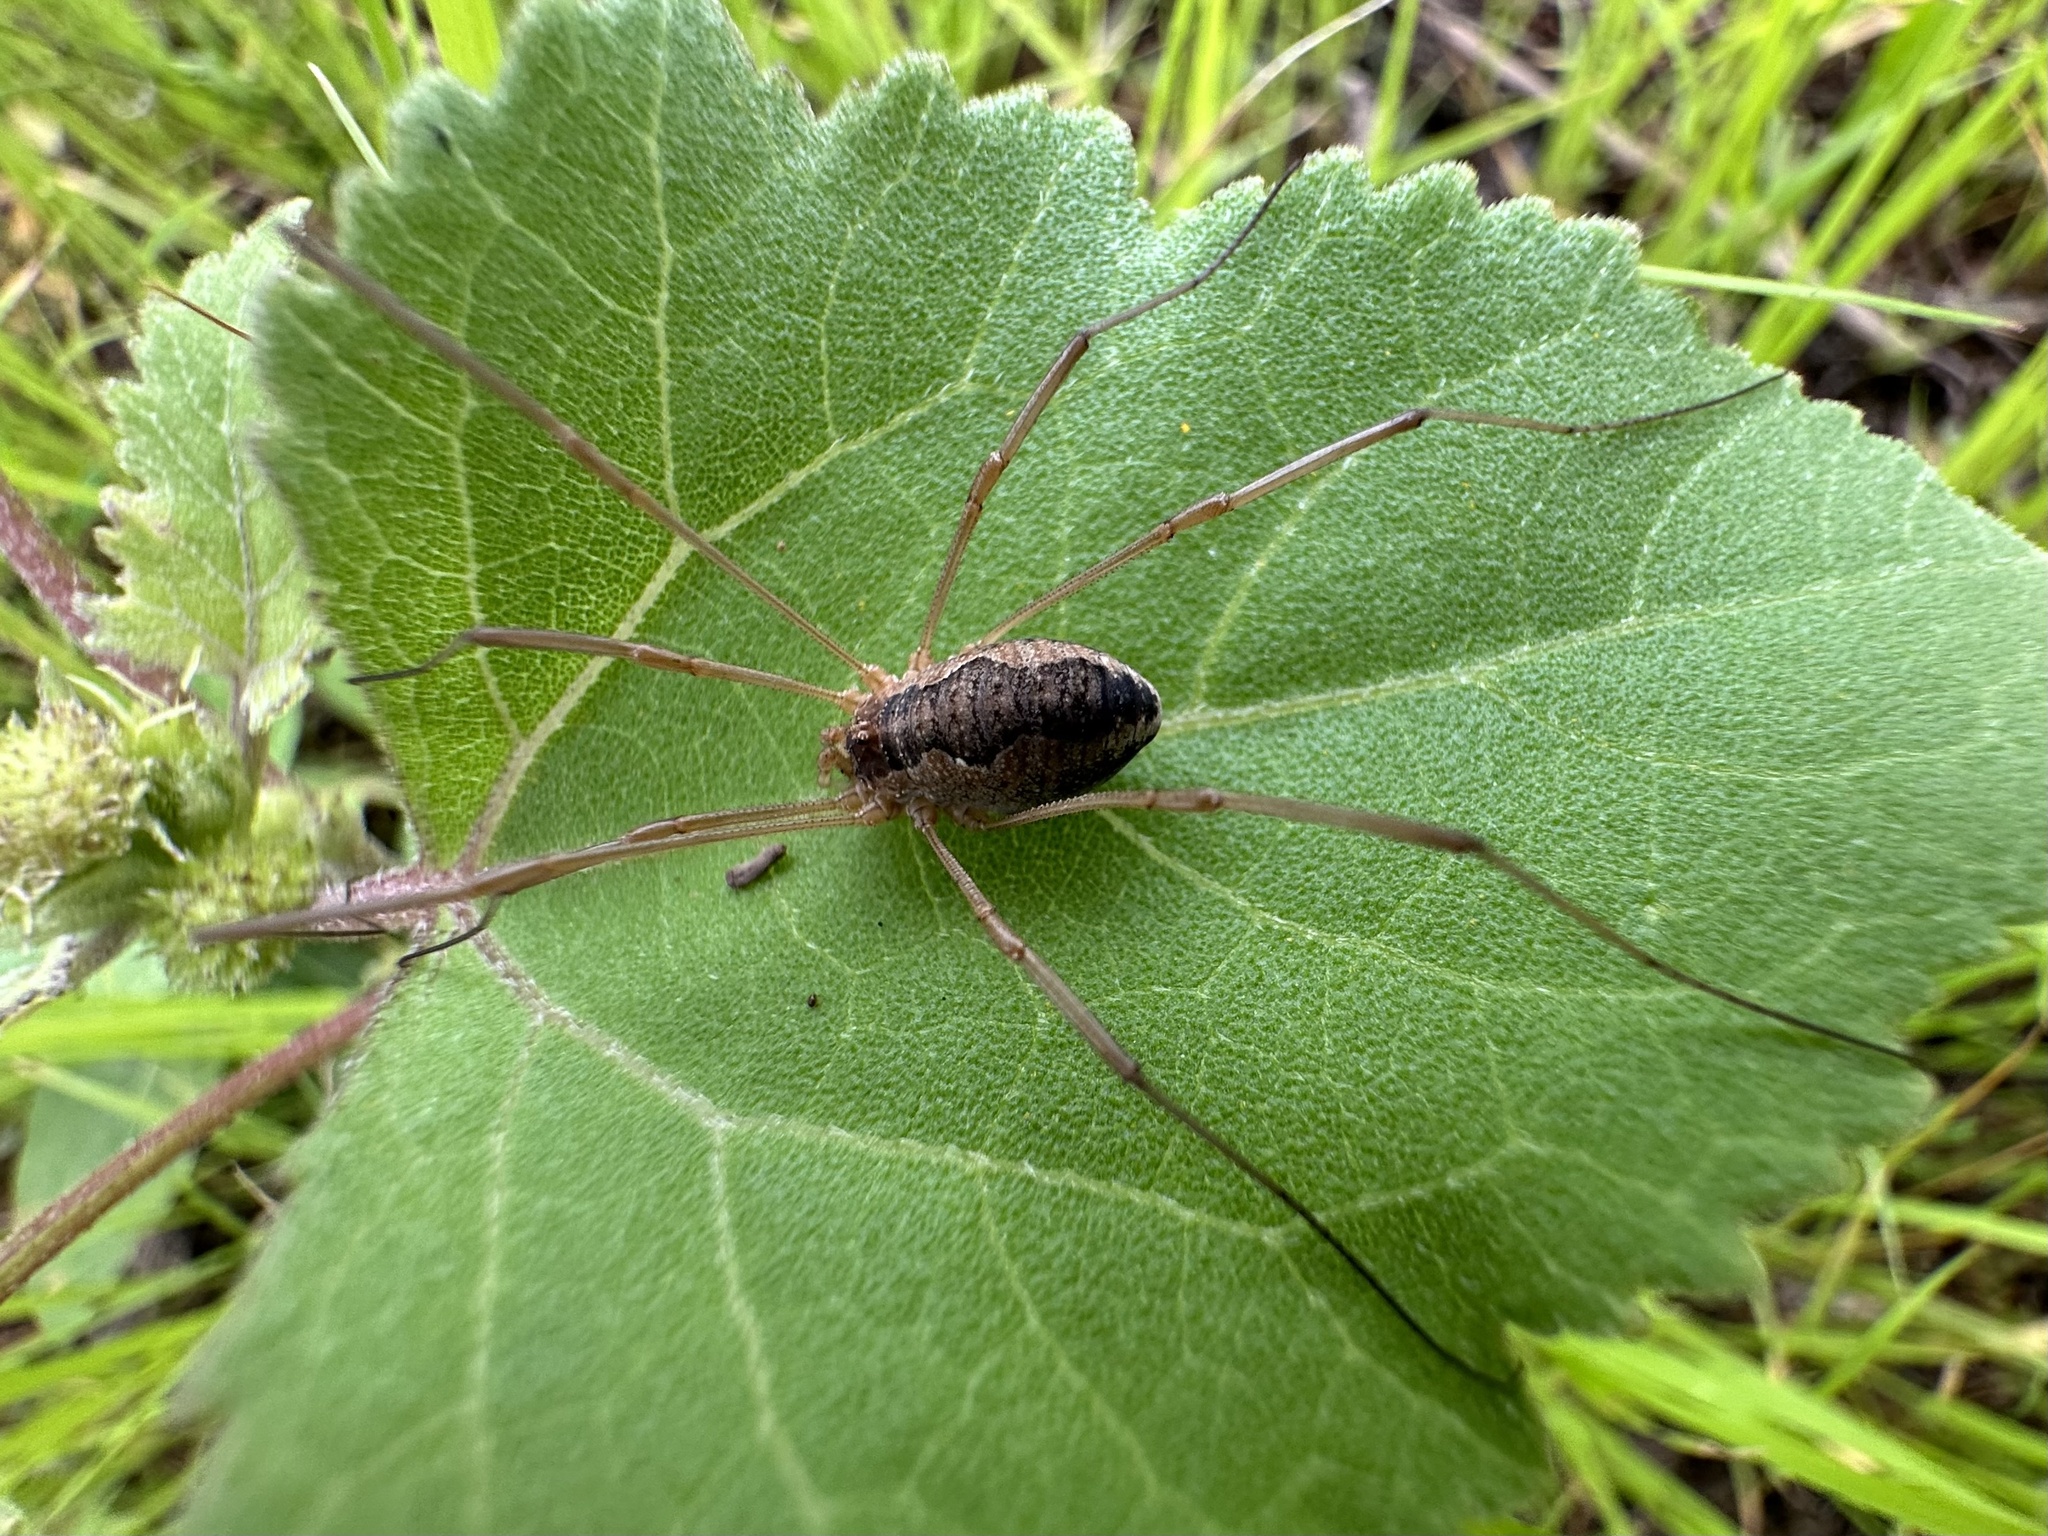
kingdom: Animalia
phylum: Arthropoda
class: Arachnida
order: Opiliones
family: Phalangiidae
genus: Phalangium
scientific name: Phalangium opilio
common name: Daddy longleg
